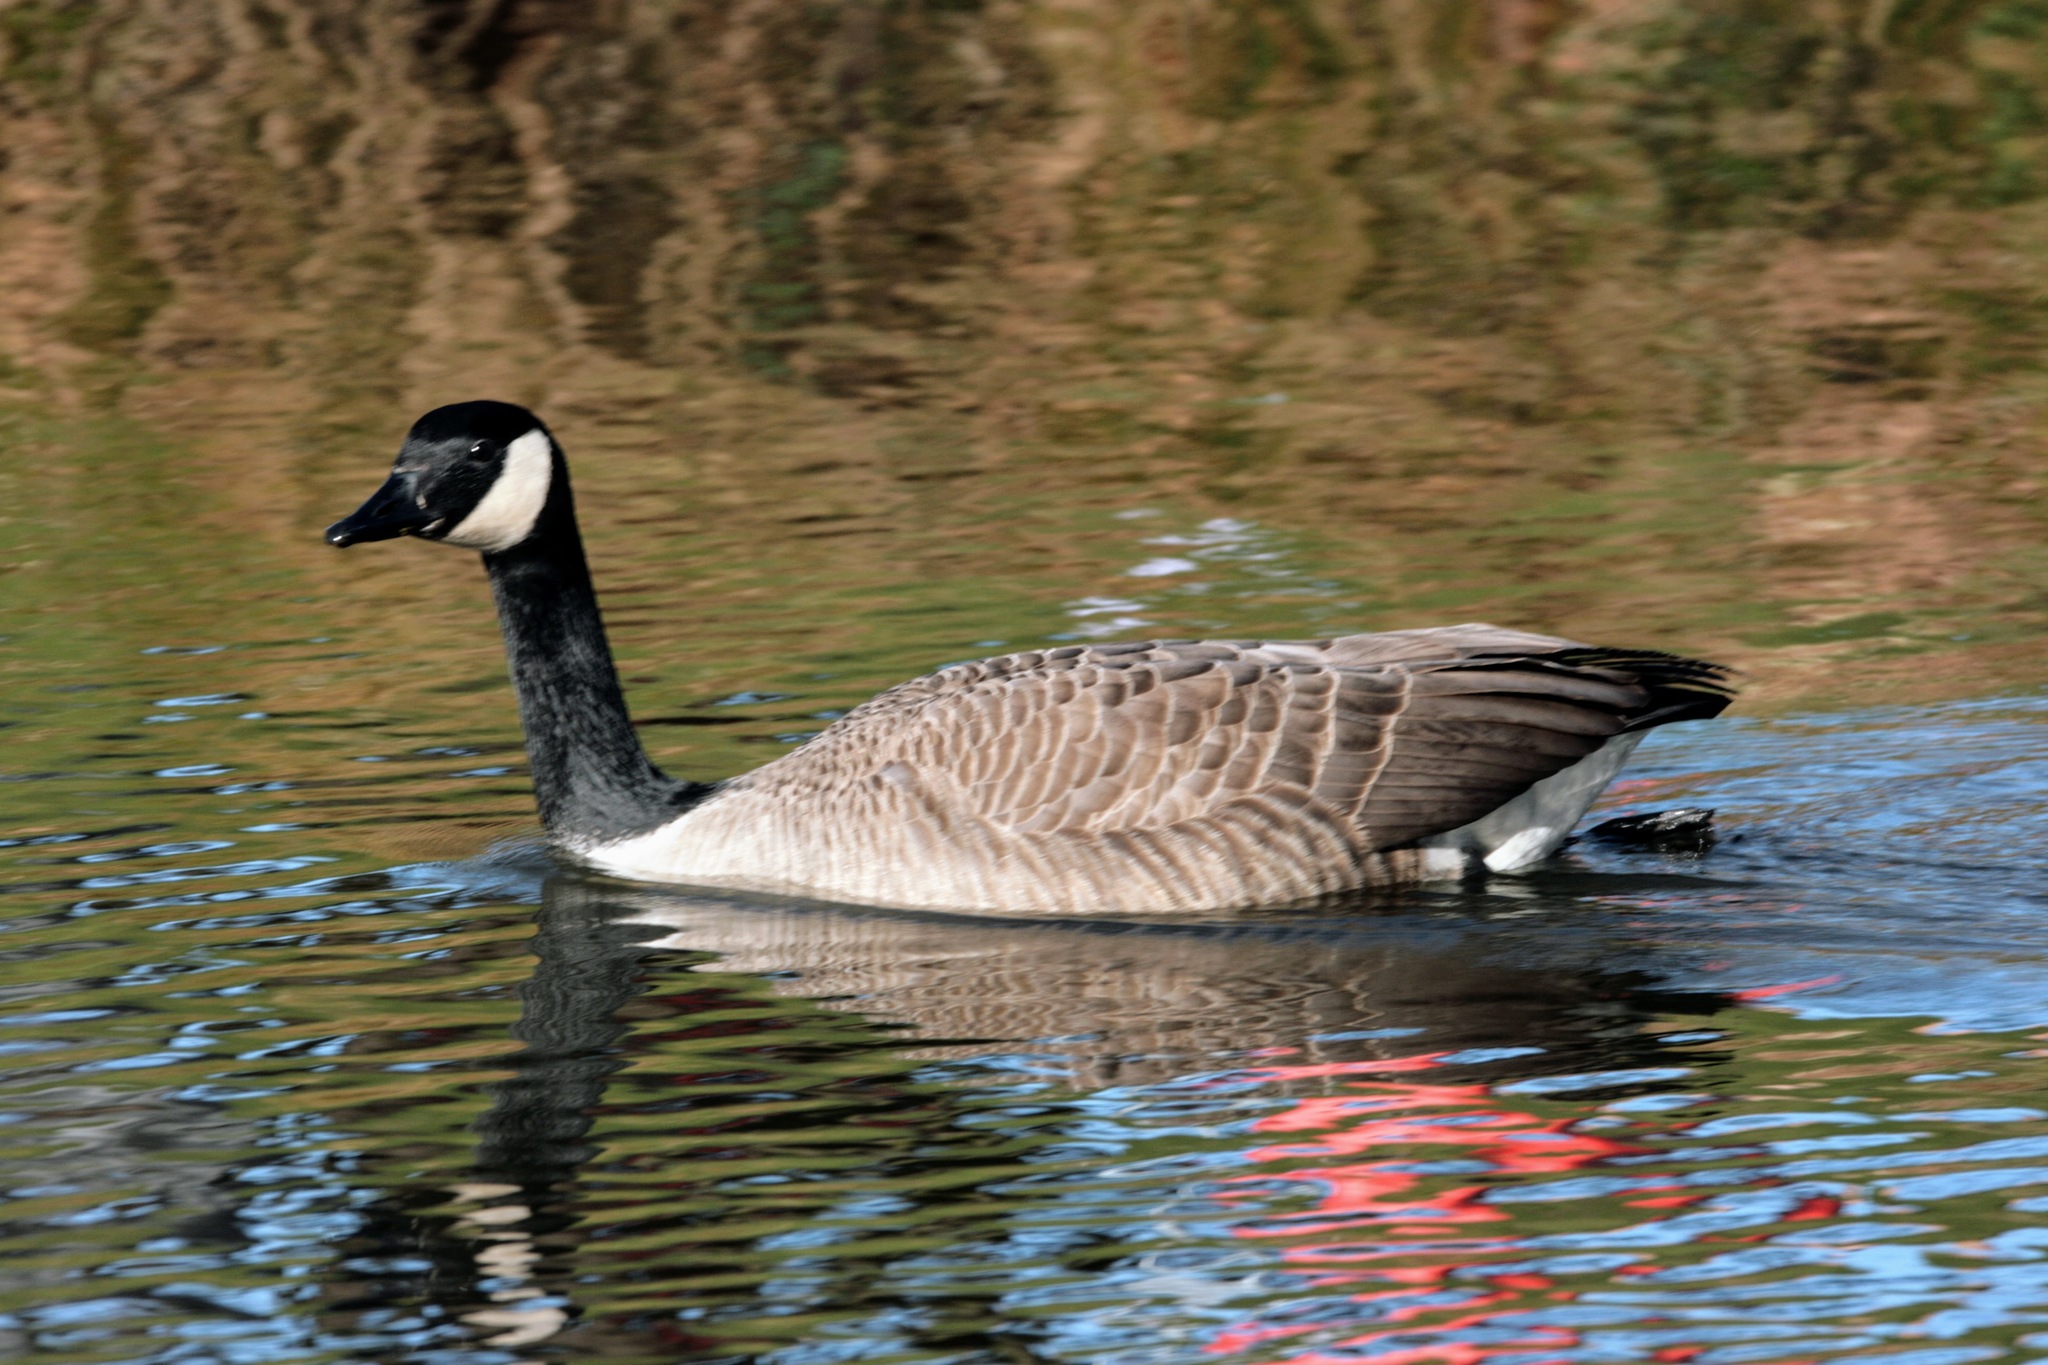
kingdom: Animalia
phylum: Chordata
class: Aves
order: Anseriformes
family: Anatidae
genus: Branta
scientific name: Branta canadensis
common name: Canada goose
